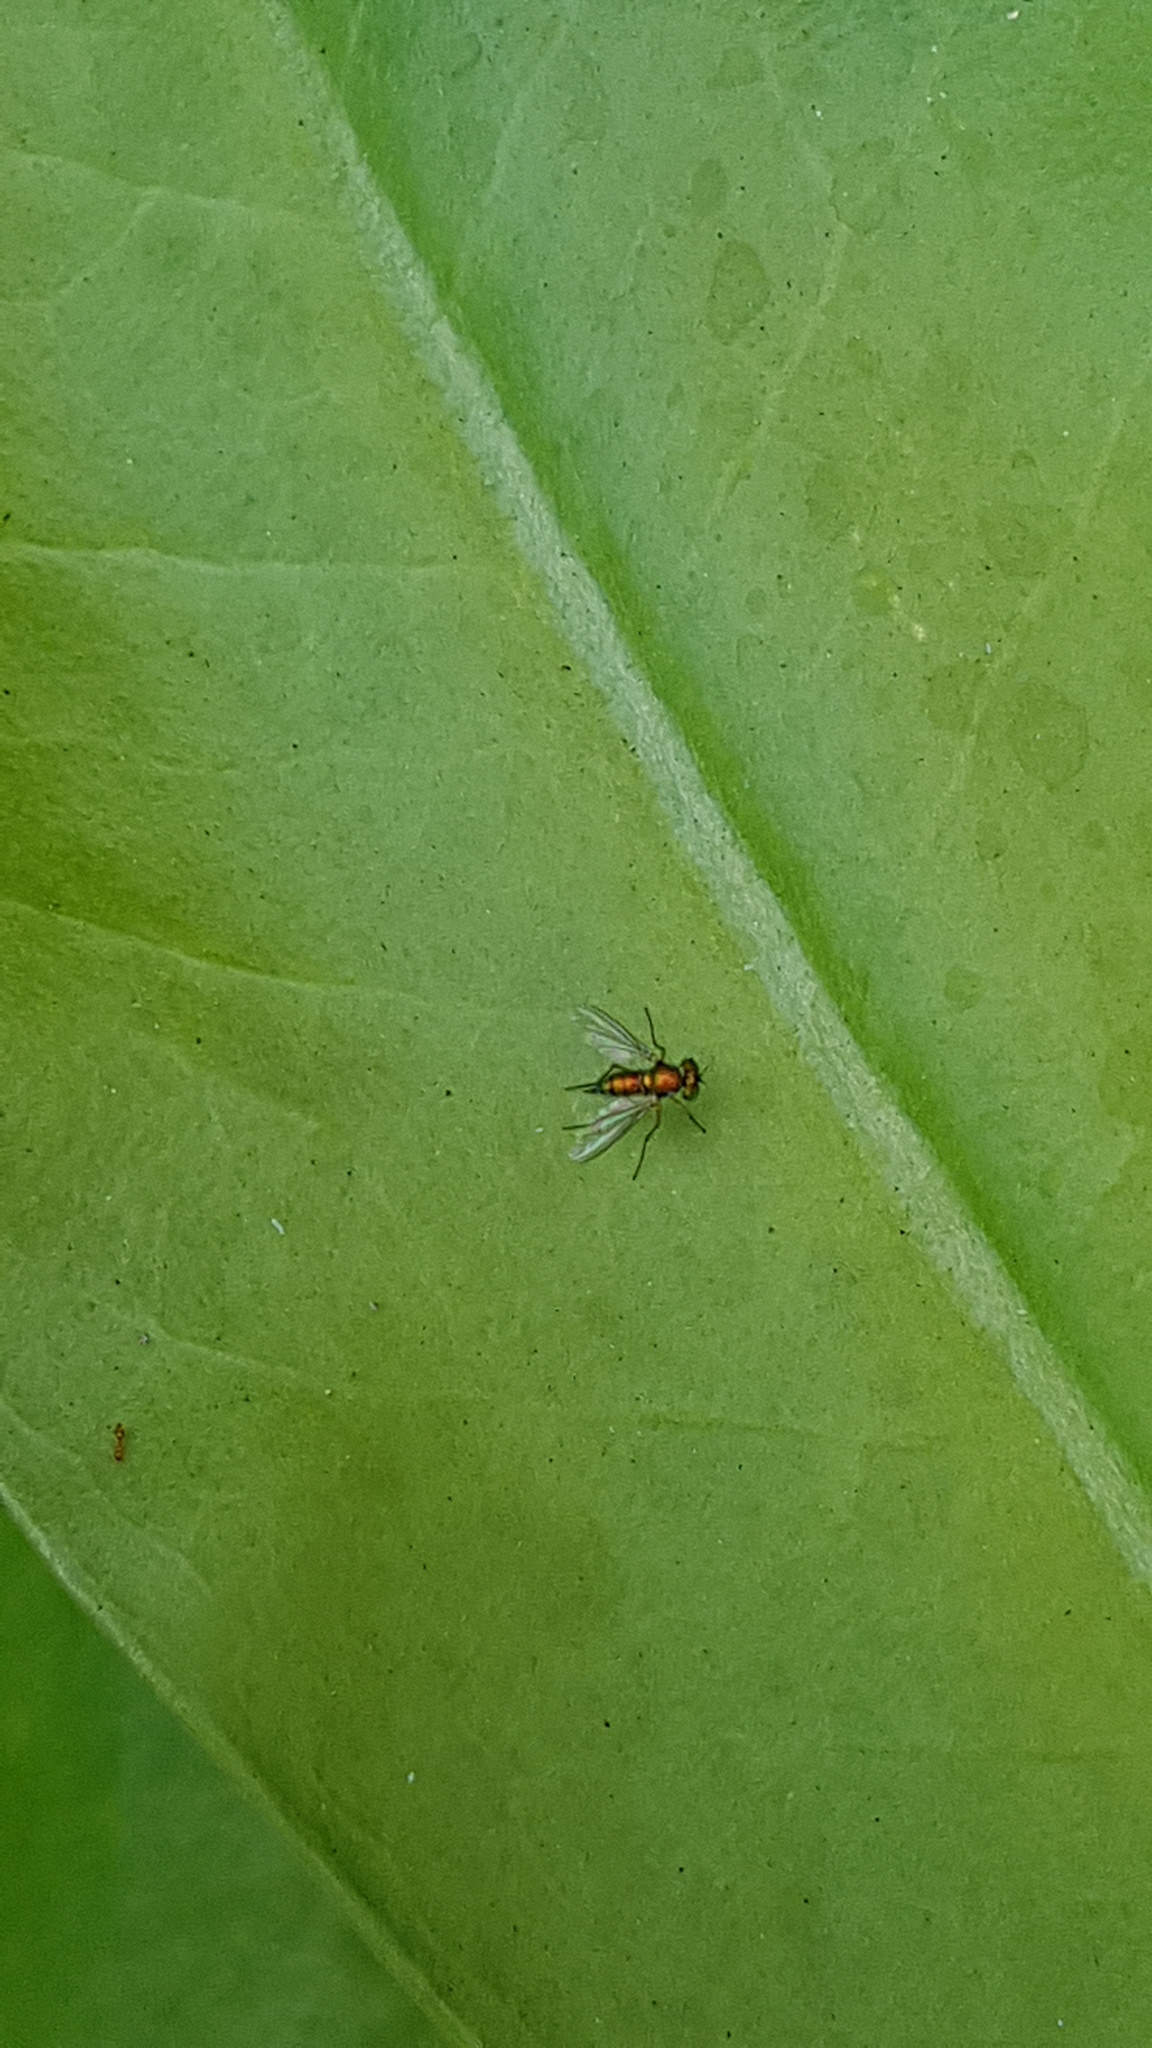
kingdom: Animalia
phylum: Arthropoda
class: Insecta
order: Diptera
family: Dolichopodidae
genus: Chrysosoma
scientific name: Chrysosoma globifer
